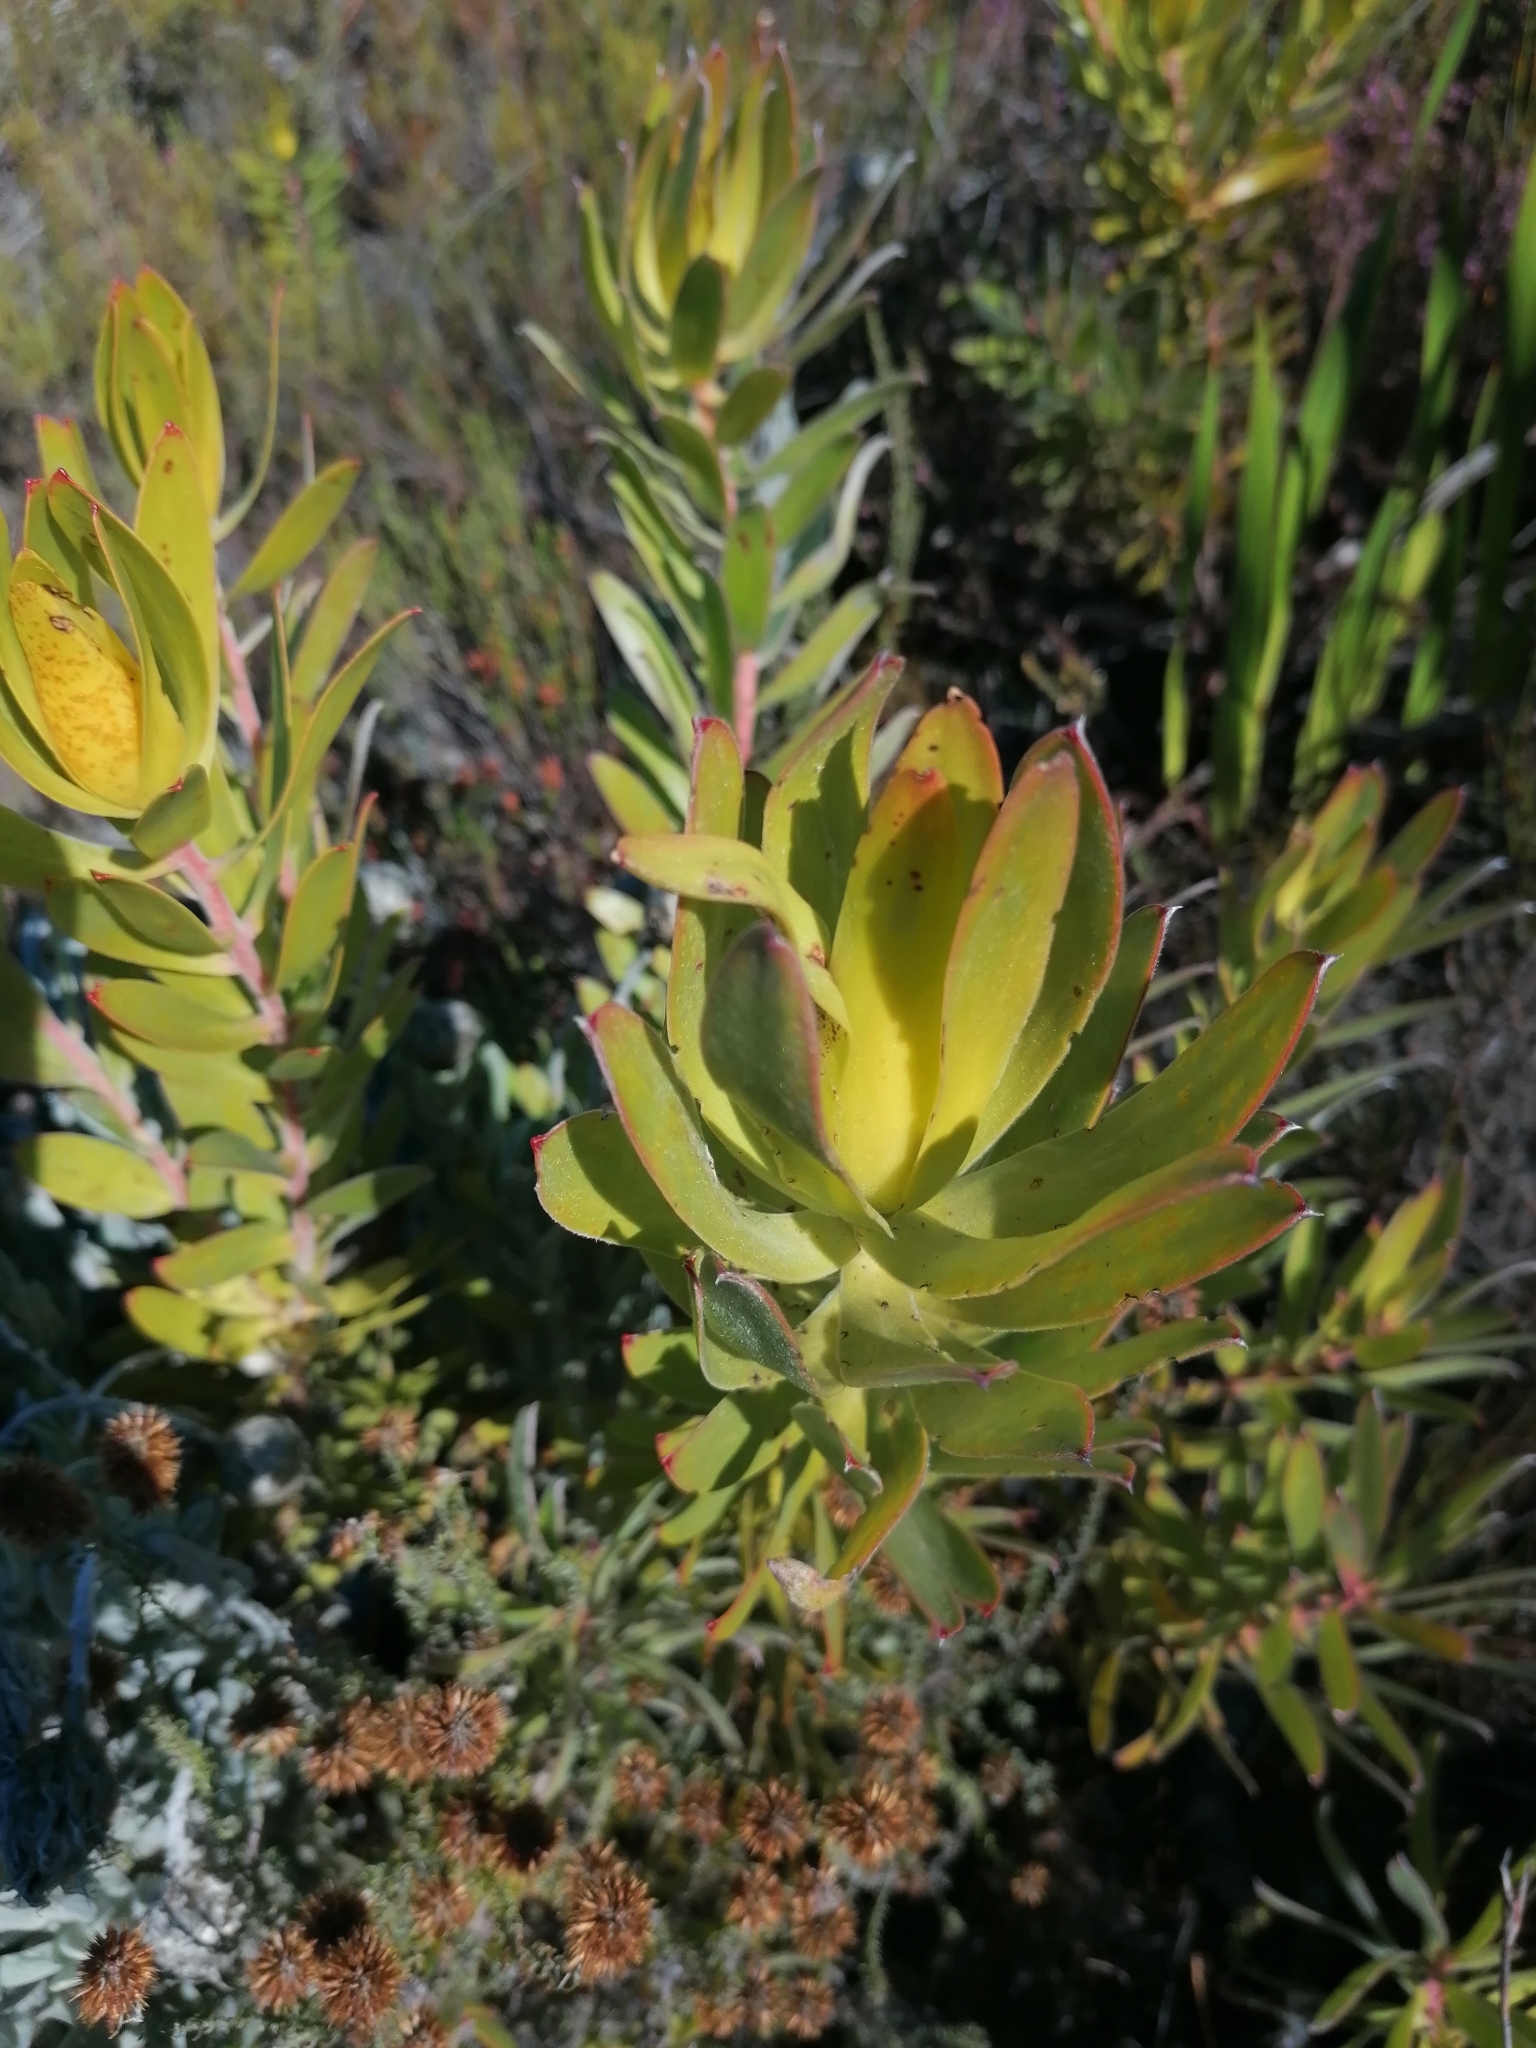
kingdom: Plantae
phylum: Tracheophyta
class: Magnoliopsida
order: Proteales
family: Proteaceae
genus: Leucadendron
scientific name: Leucadendron laureolum
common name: Golden sunshinebush
